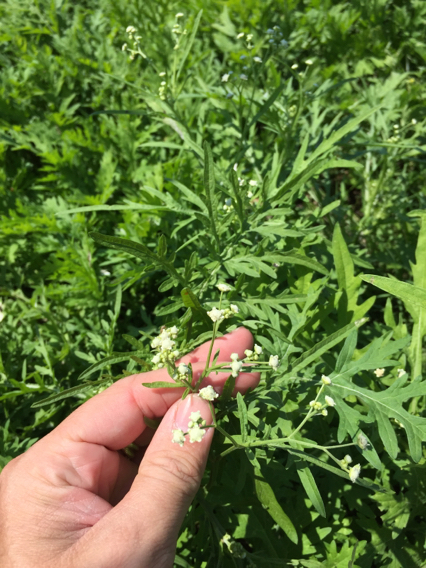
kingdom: Plantae
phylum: Tracheophyta
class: Magnoliopsida
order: Asterales
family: Asteraceae
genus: Parthenium
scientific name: Parthenium hysterophorus
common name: Santa maria feverfew
